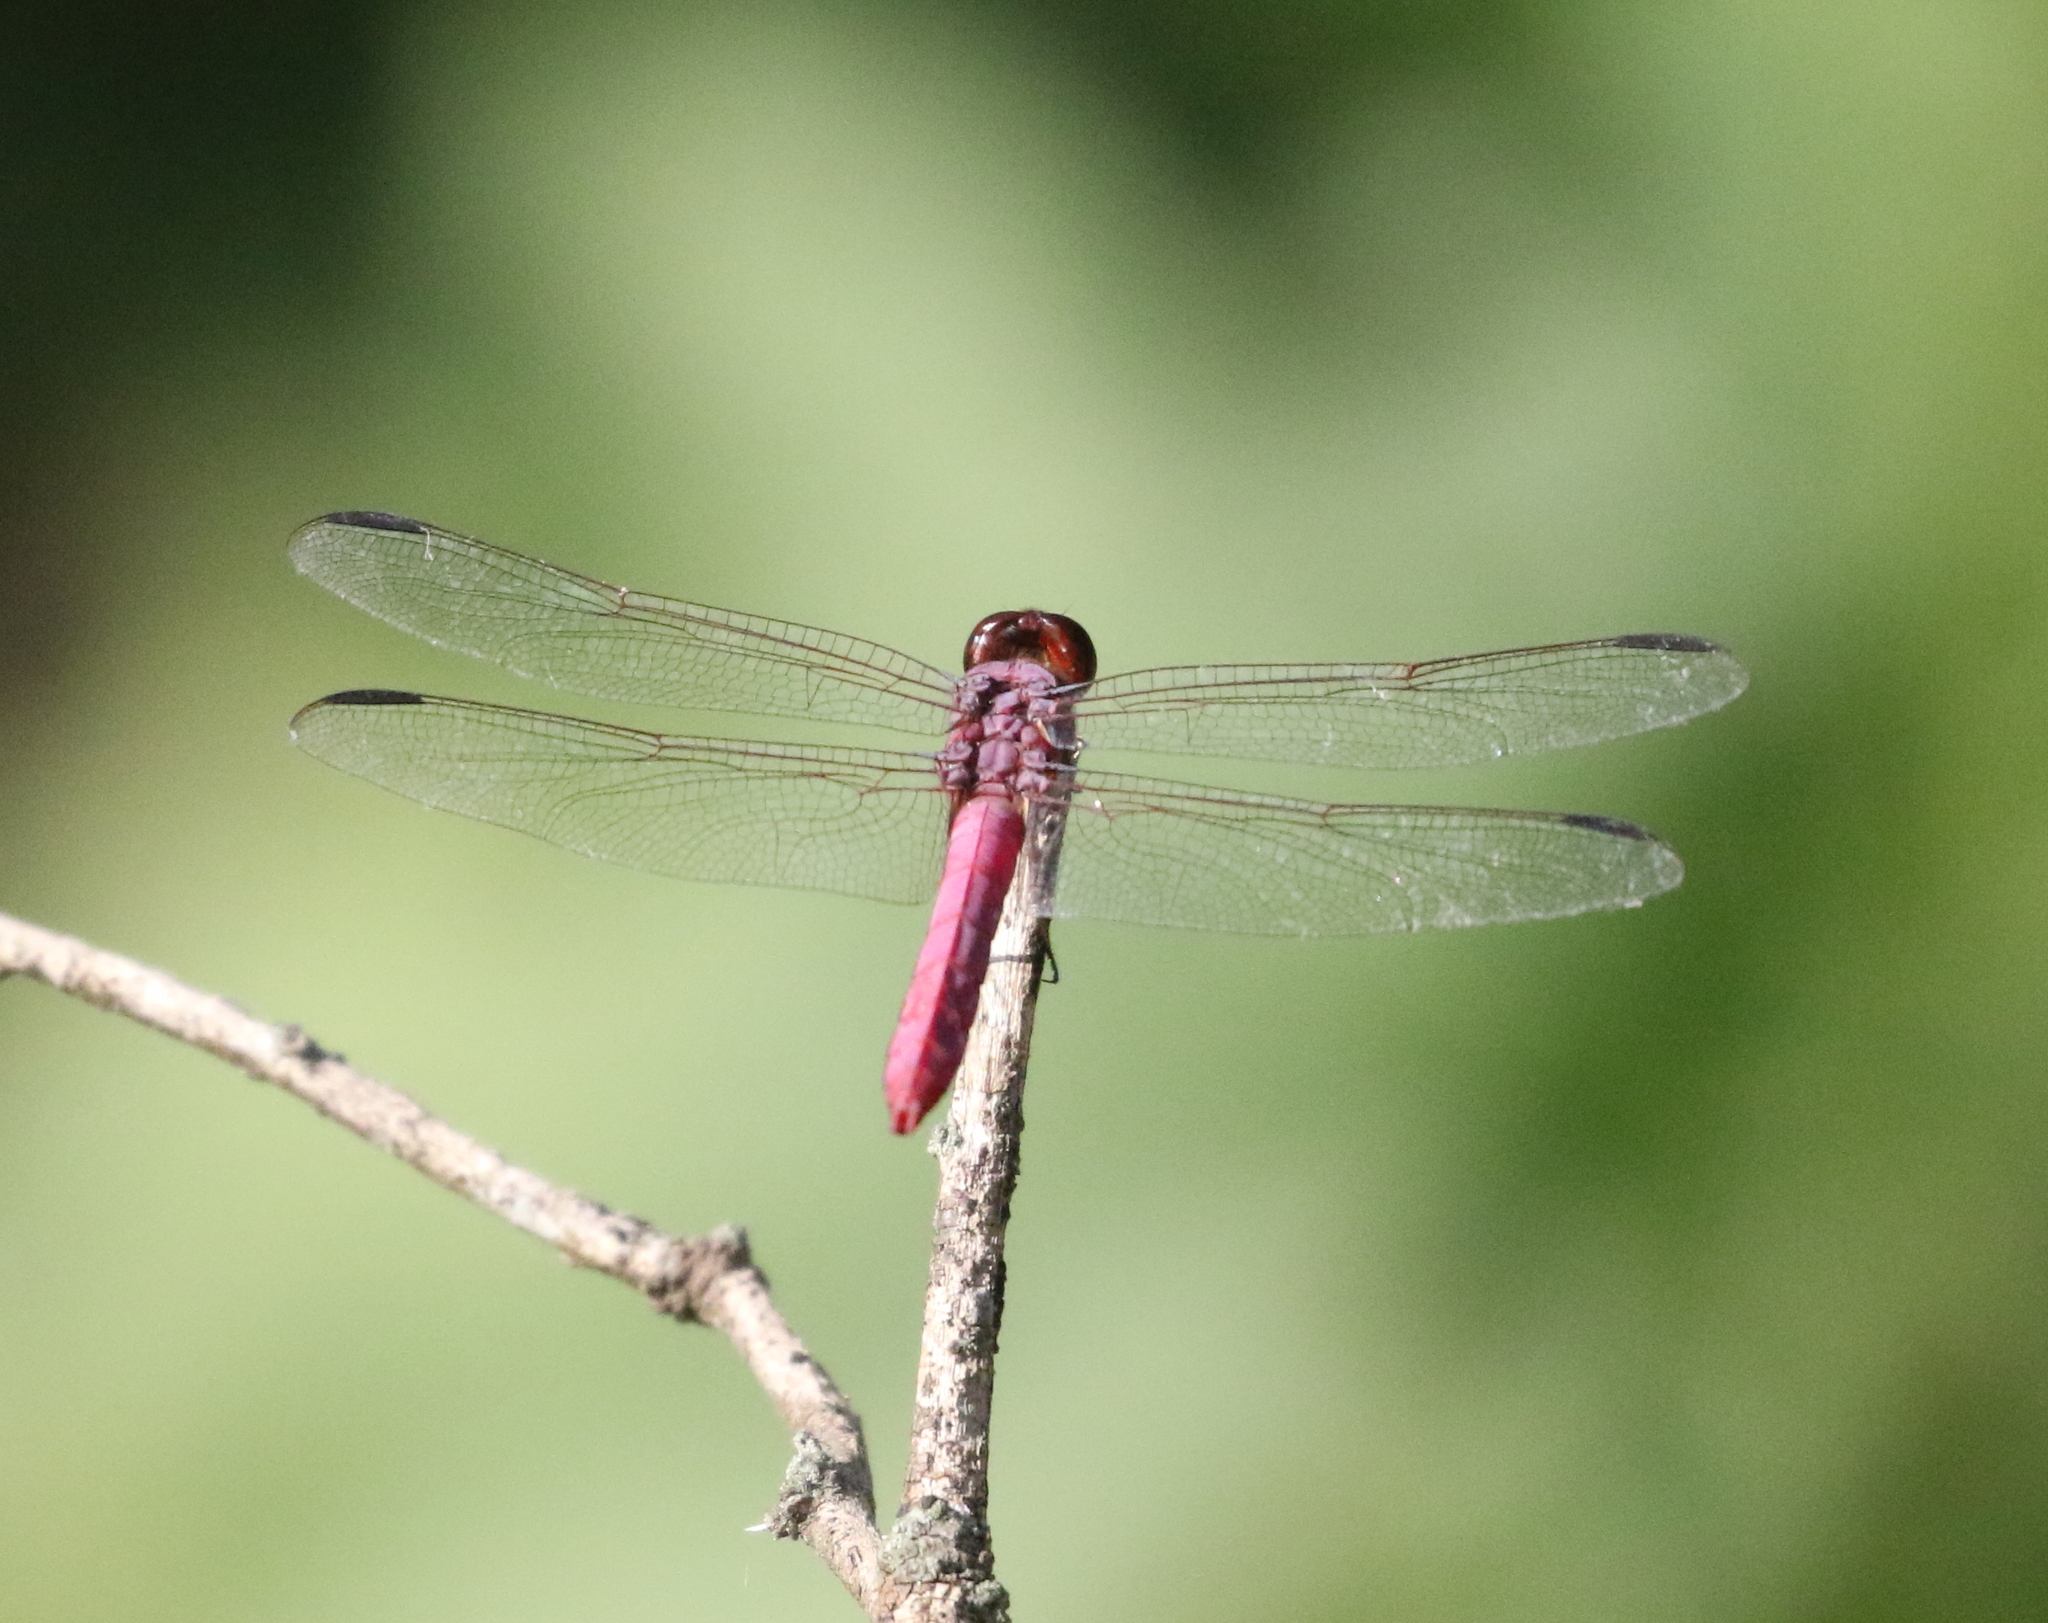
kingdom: Animalia
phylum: Arthropoda
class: Insecta
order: Odonata
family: Libellulidae
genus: Orthemis
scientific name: Orthemis ferruginea
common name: Roseate skimmer
